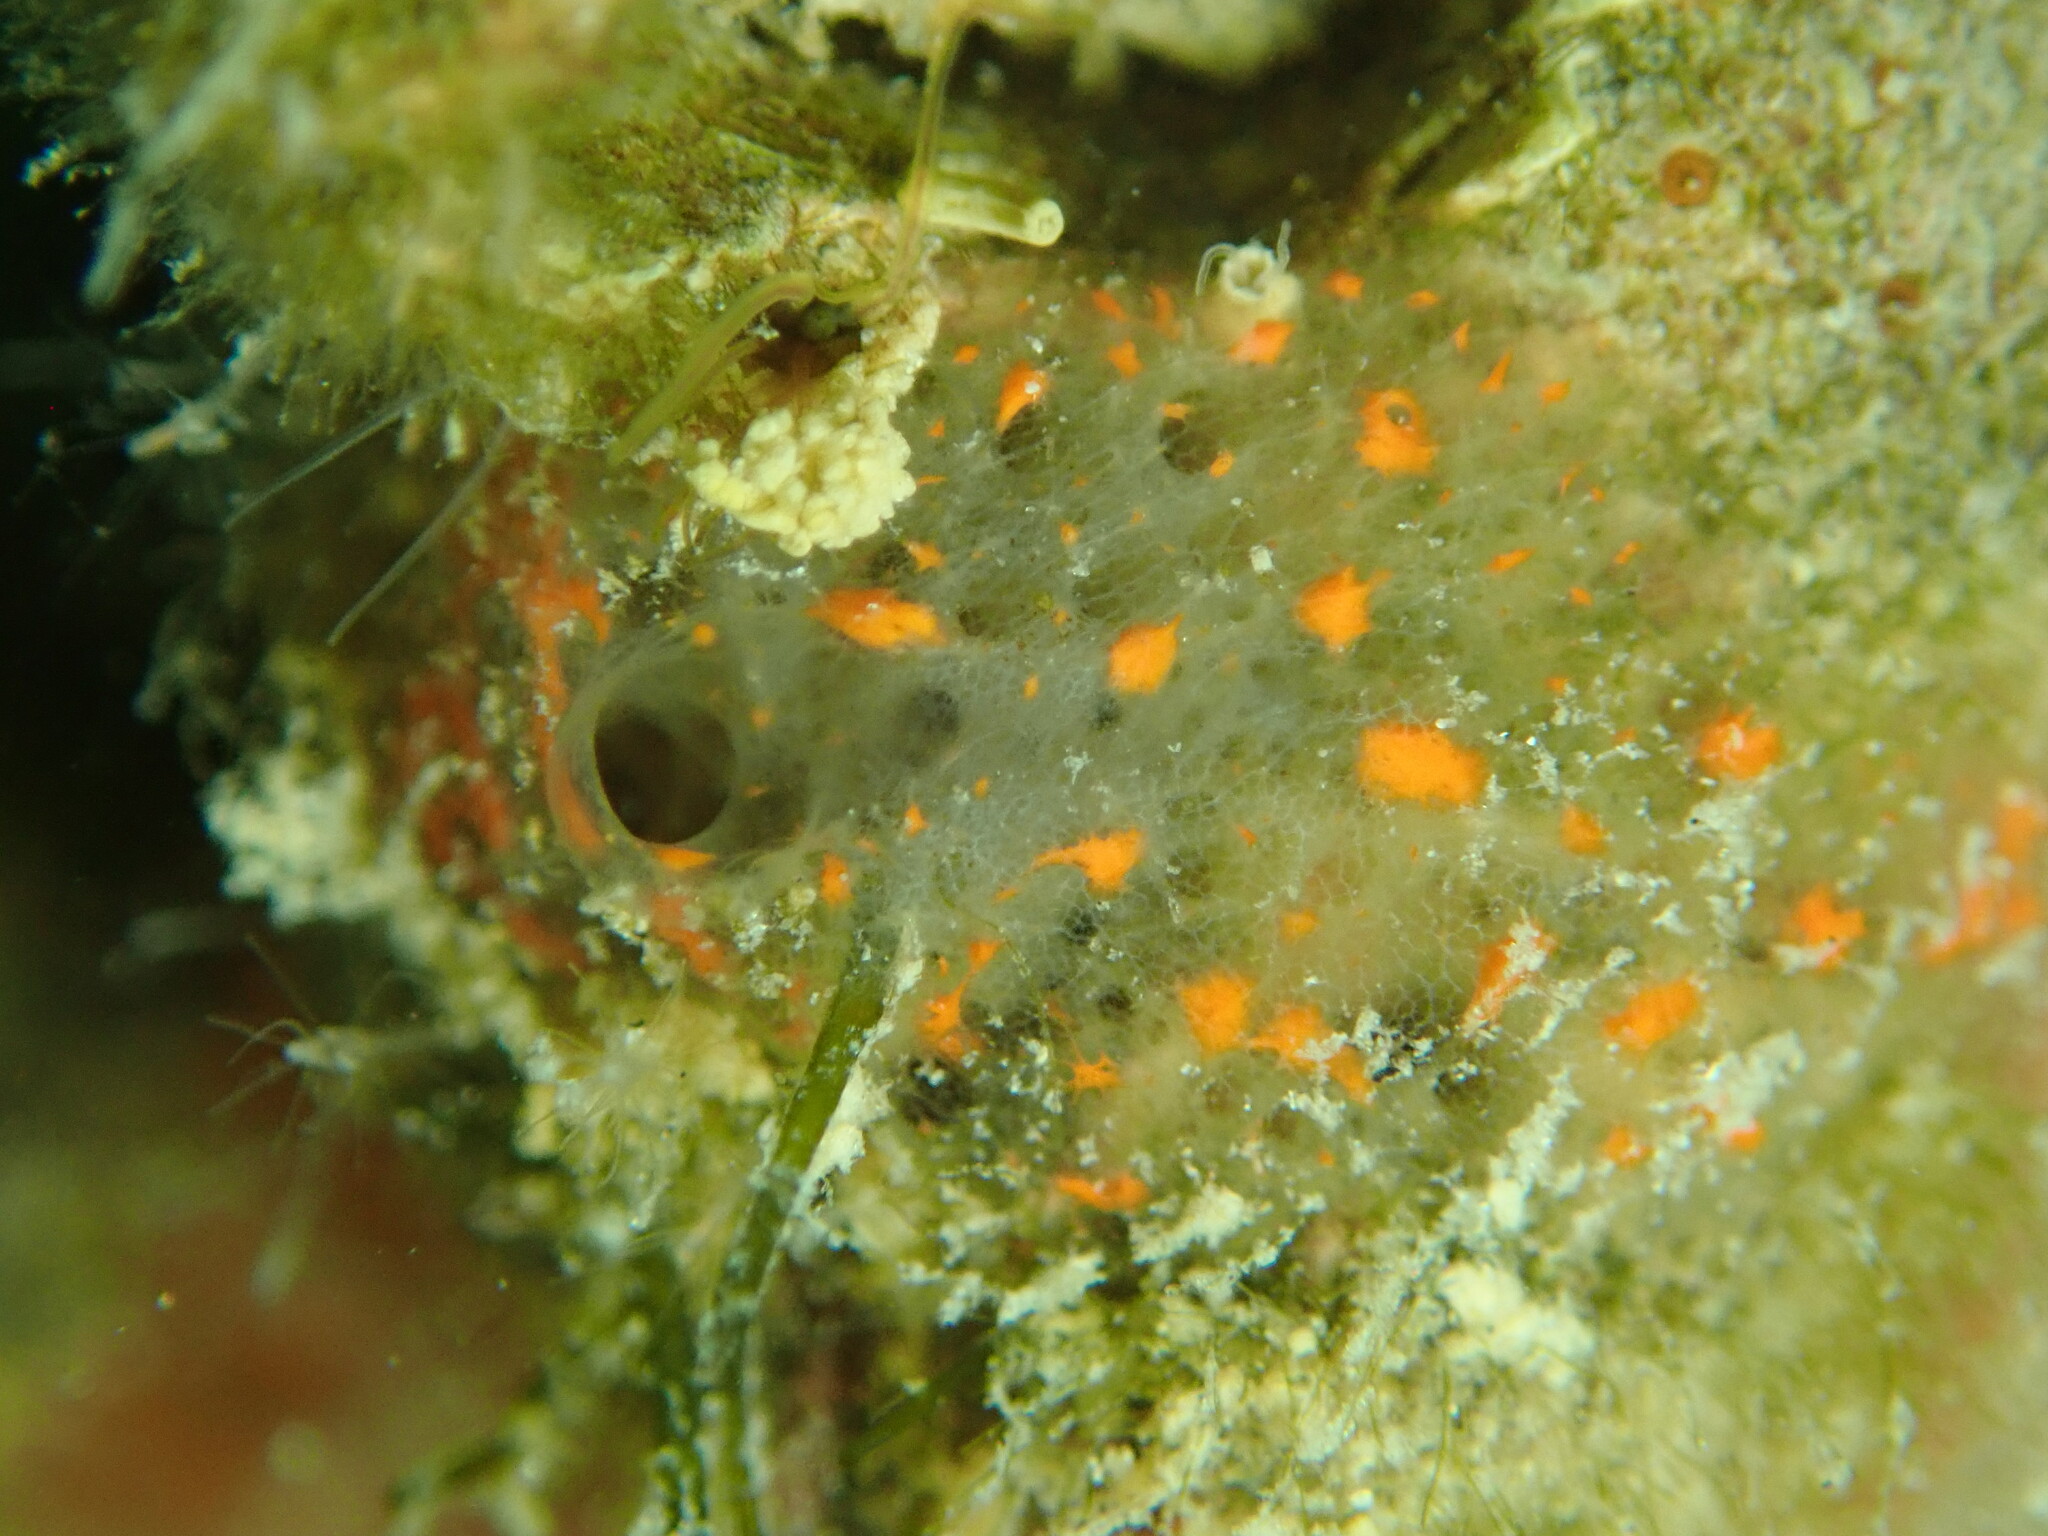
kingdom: Animalia
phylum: Porifera
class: Demospongiae
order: Poecilosclerida
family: Mycalidae
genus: Mycale
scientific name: Mycale cecilia
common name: Sponge
